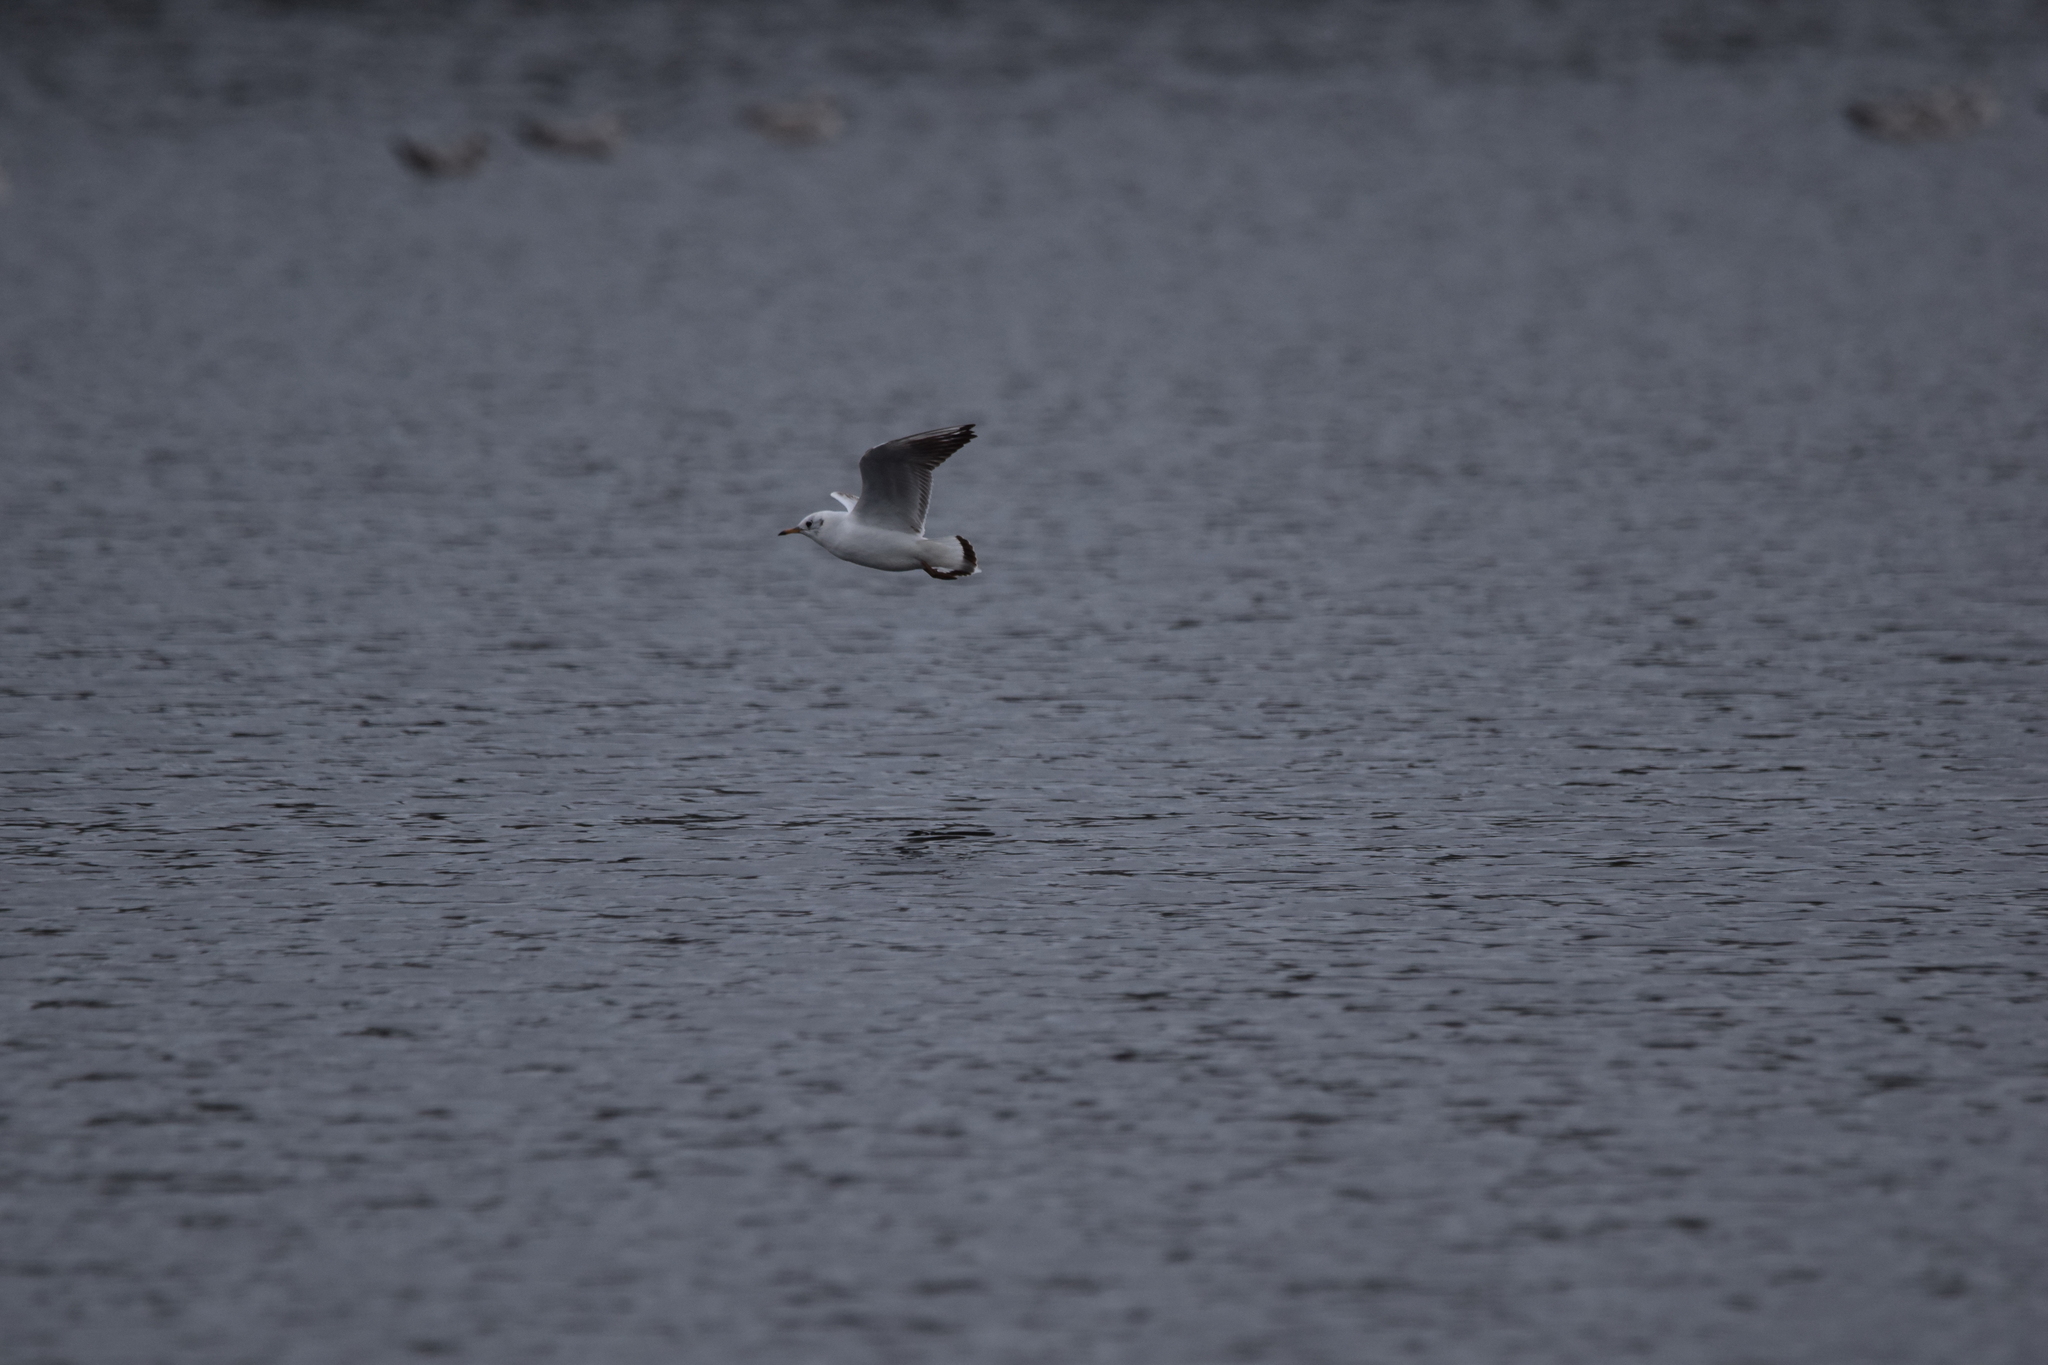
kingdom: Animalia
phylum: Chordata
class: Aves
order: Charadriiformes
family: Laridae
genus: Chroicocephalus
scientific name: Chroicocephalus ridibundus
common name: Black-headed gull
